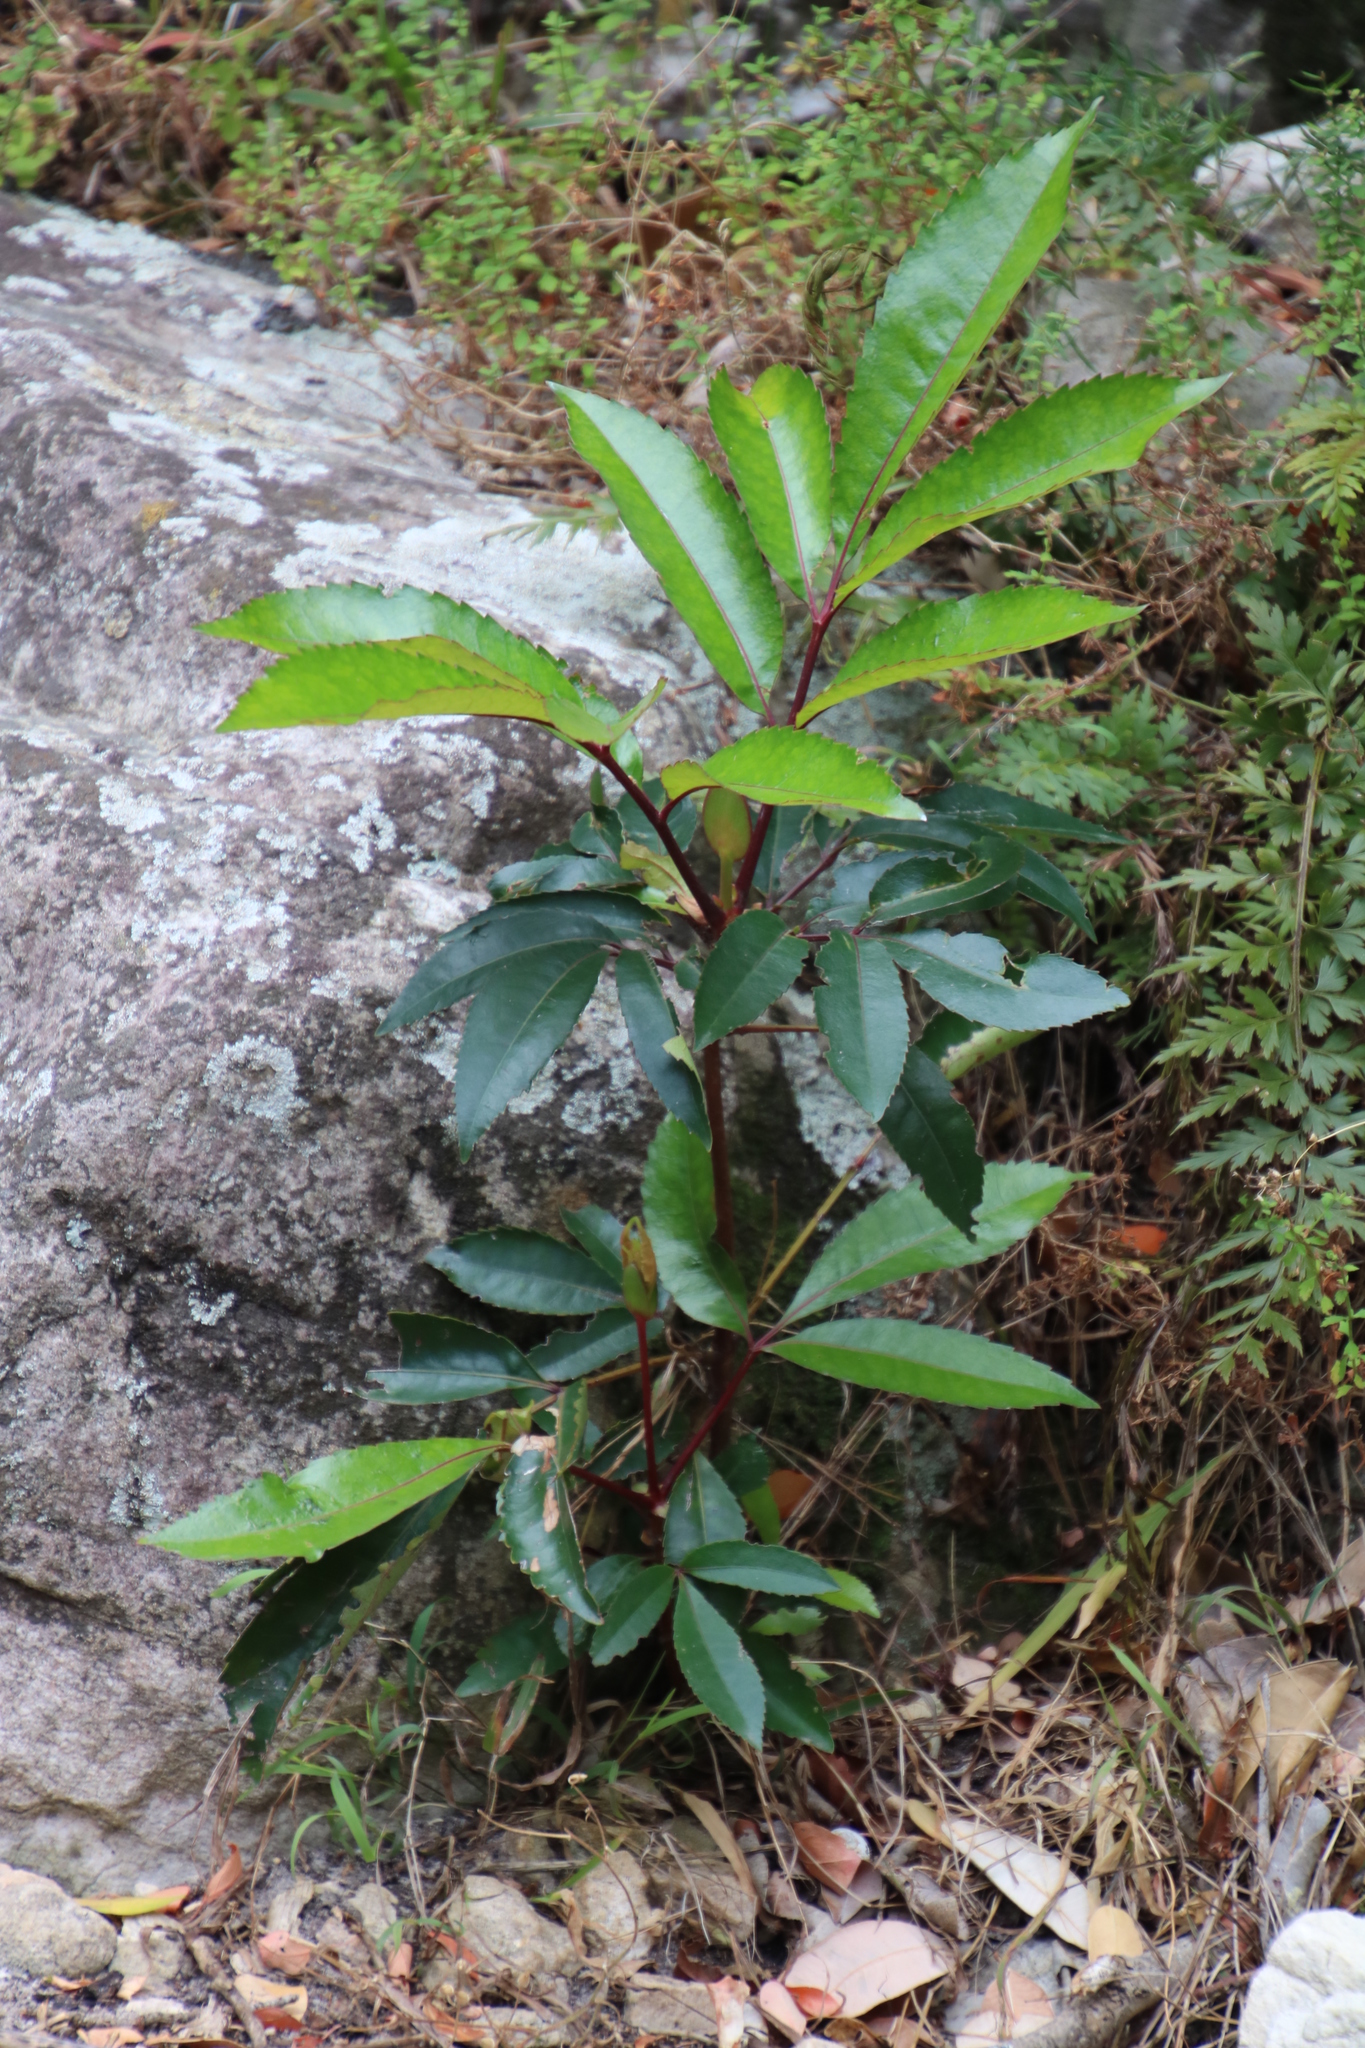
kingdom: Plantae
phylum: Tracheophyta
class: Magnoliopsida
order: Oxalidales
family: Cunoniaceae
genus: Cunonia
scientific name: Cunonia capensis
